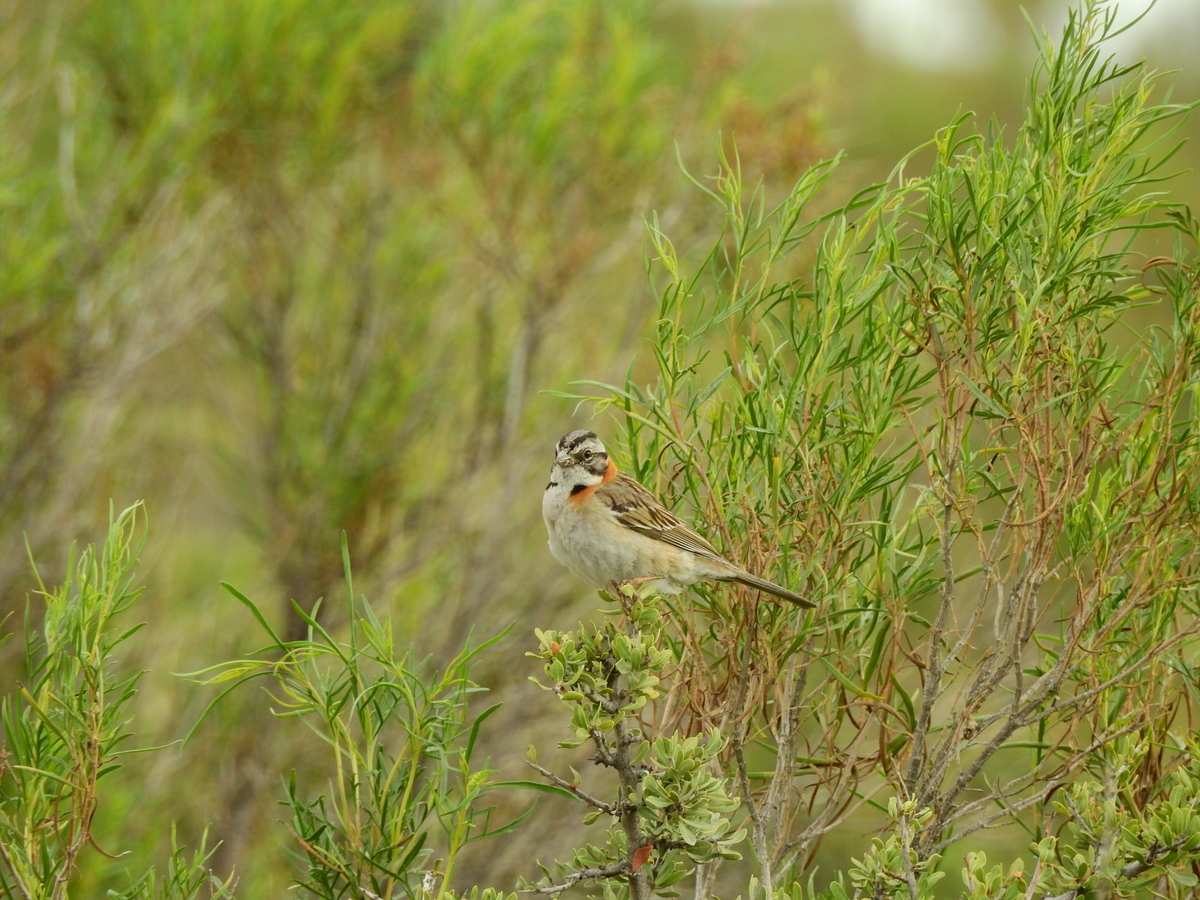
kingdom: Animalia
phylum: Chordata
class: Aves
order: Passeriformes
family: Passerellidae
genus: Zonotrichia
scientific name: Zonotrichia capensis
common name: Rufous-collared sparrow
